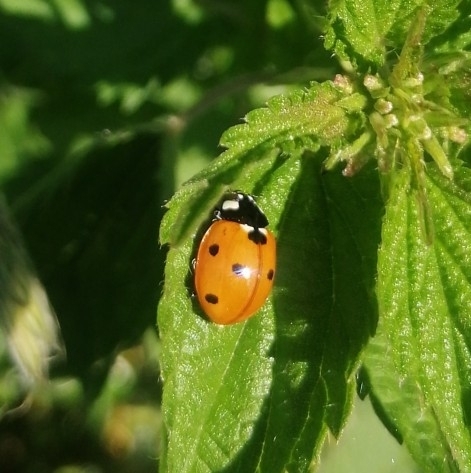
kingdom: Animalia
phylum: Arthropoda
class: Insecta
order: Coleoptera
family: Coccinellidae
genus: Coccinella
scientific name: Coccinella septempunctata
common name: Sevenspotted lady beetle
